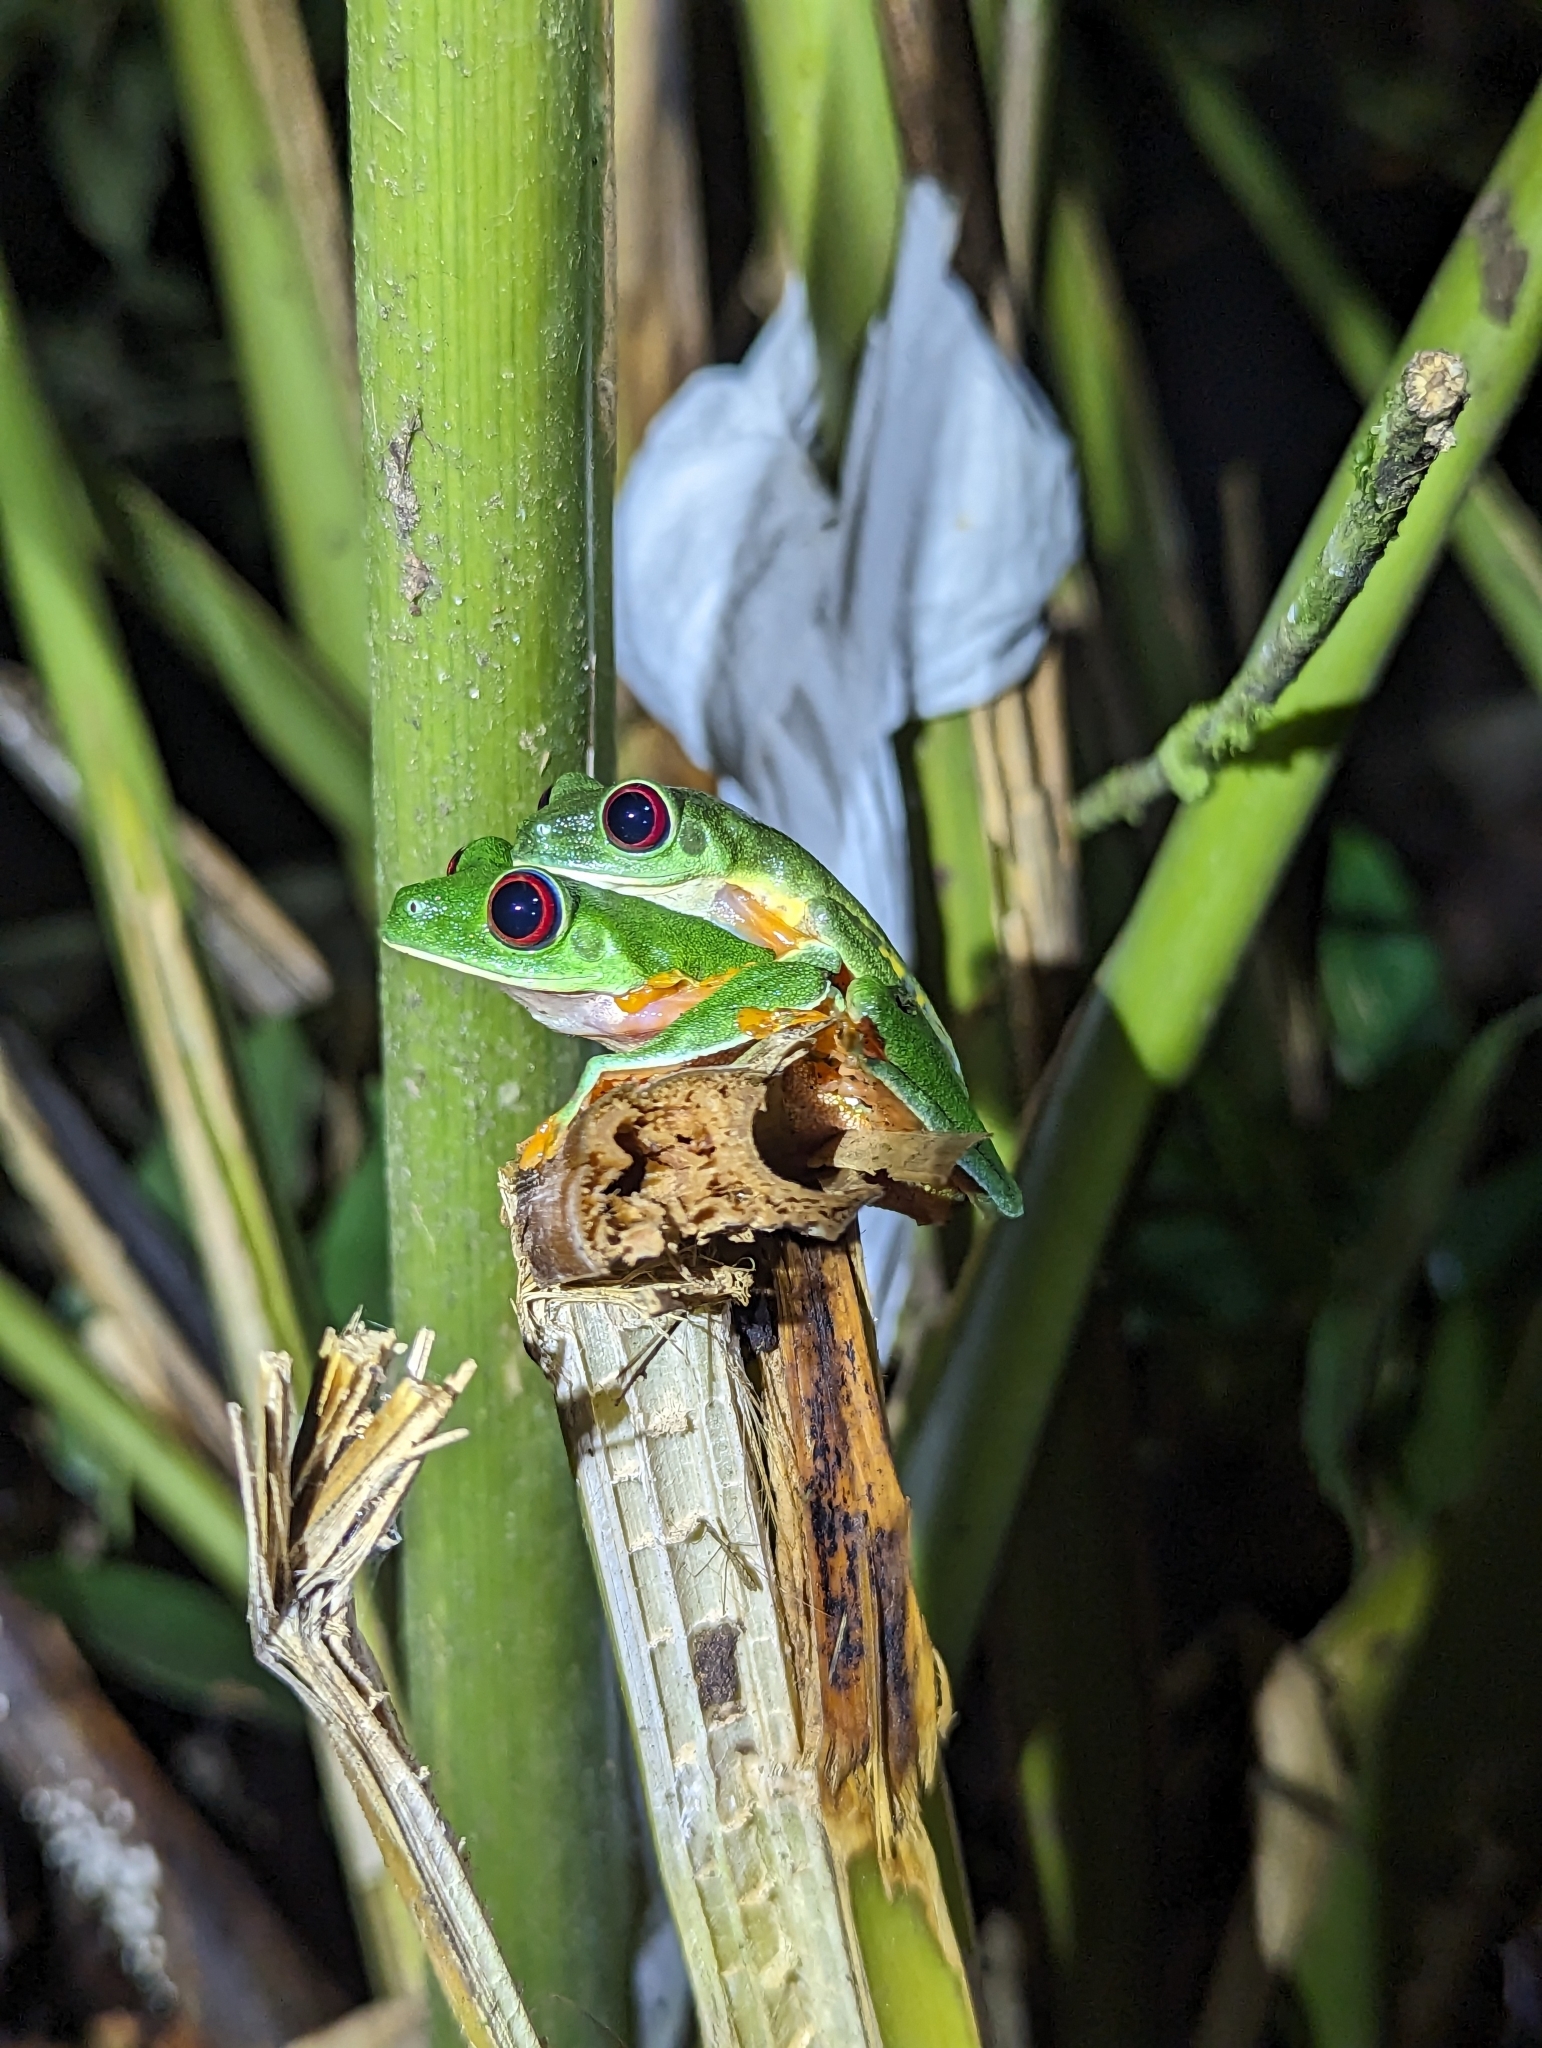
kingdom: Animalia
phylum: Chordata
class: Amphibia
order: Anura
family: Phyllomedusidae
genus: Agalychnis
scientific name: Agalychnis callidryas
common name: Red-eyed treefrog
